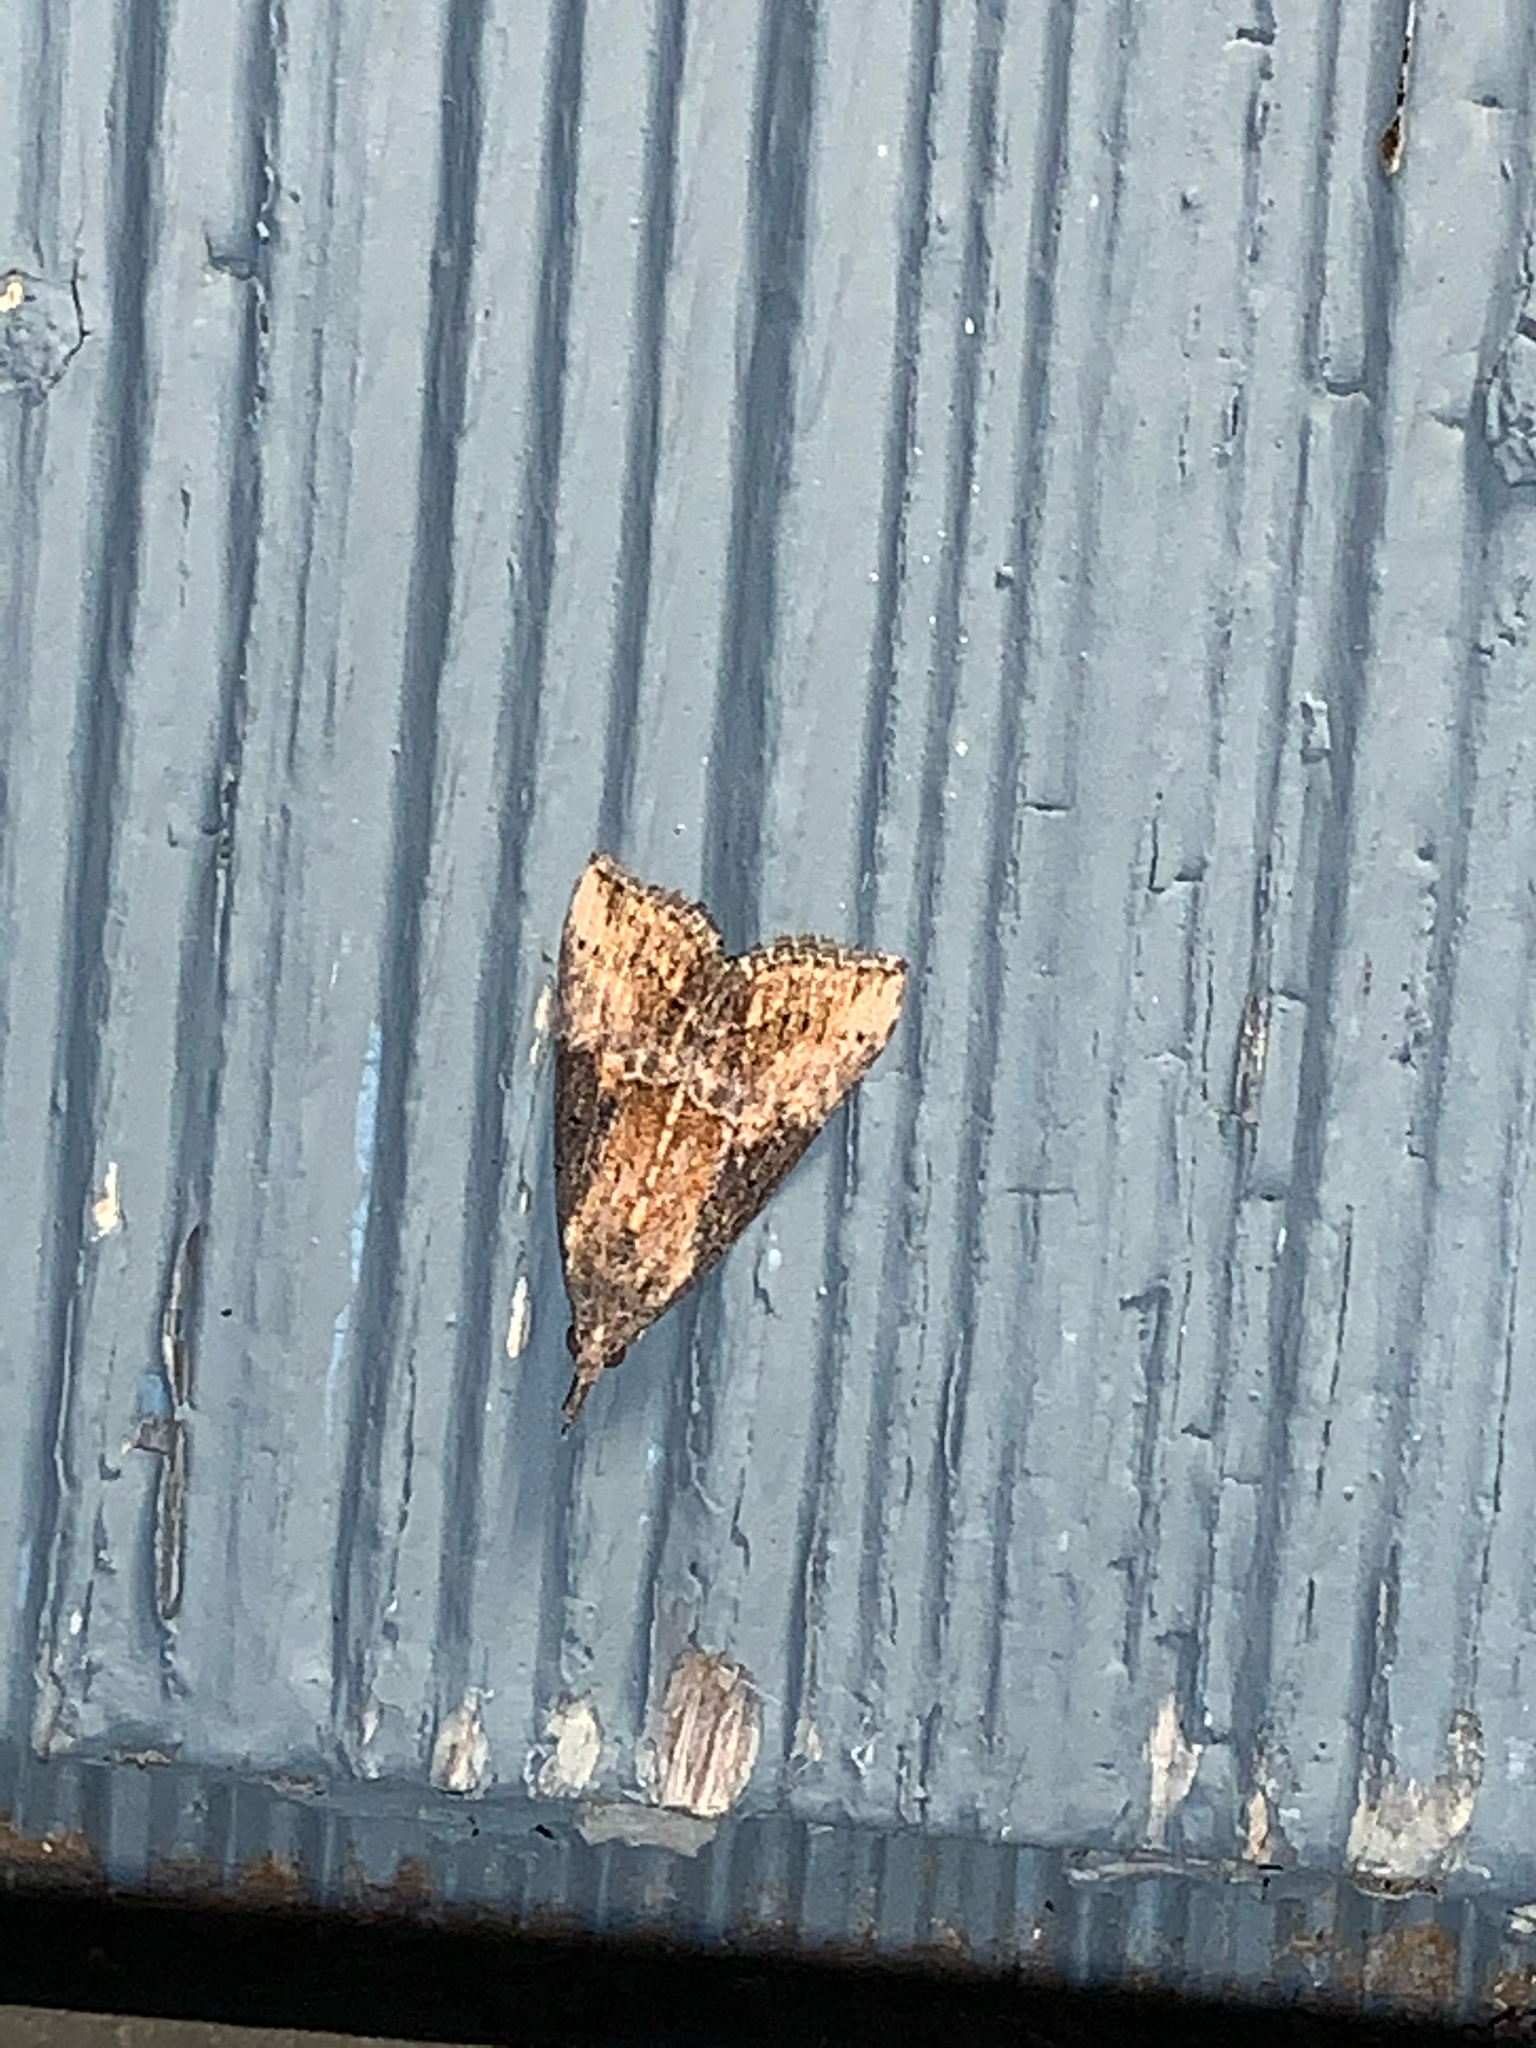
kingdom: Animalia
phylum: Arthropoda
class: Insecta
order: Lepidoptera
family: Erebidae
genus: Hypena
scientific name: Hypena scabra
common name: Green cloverworm
